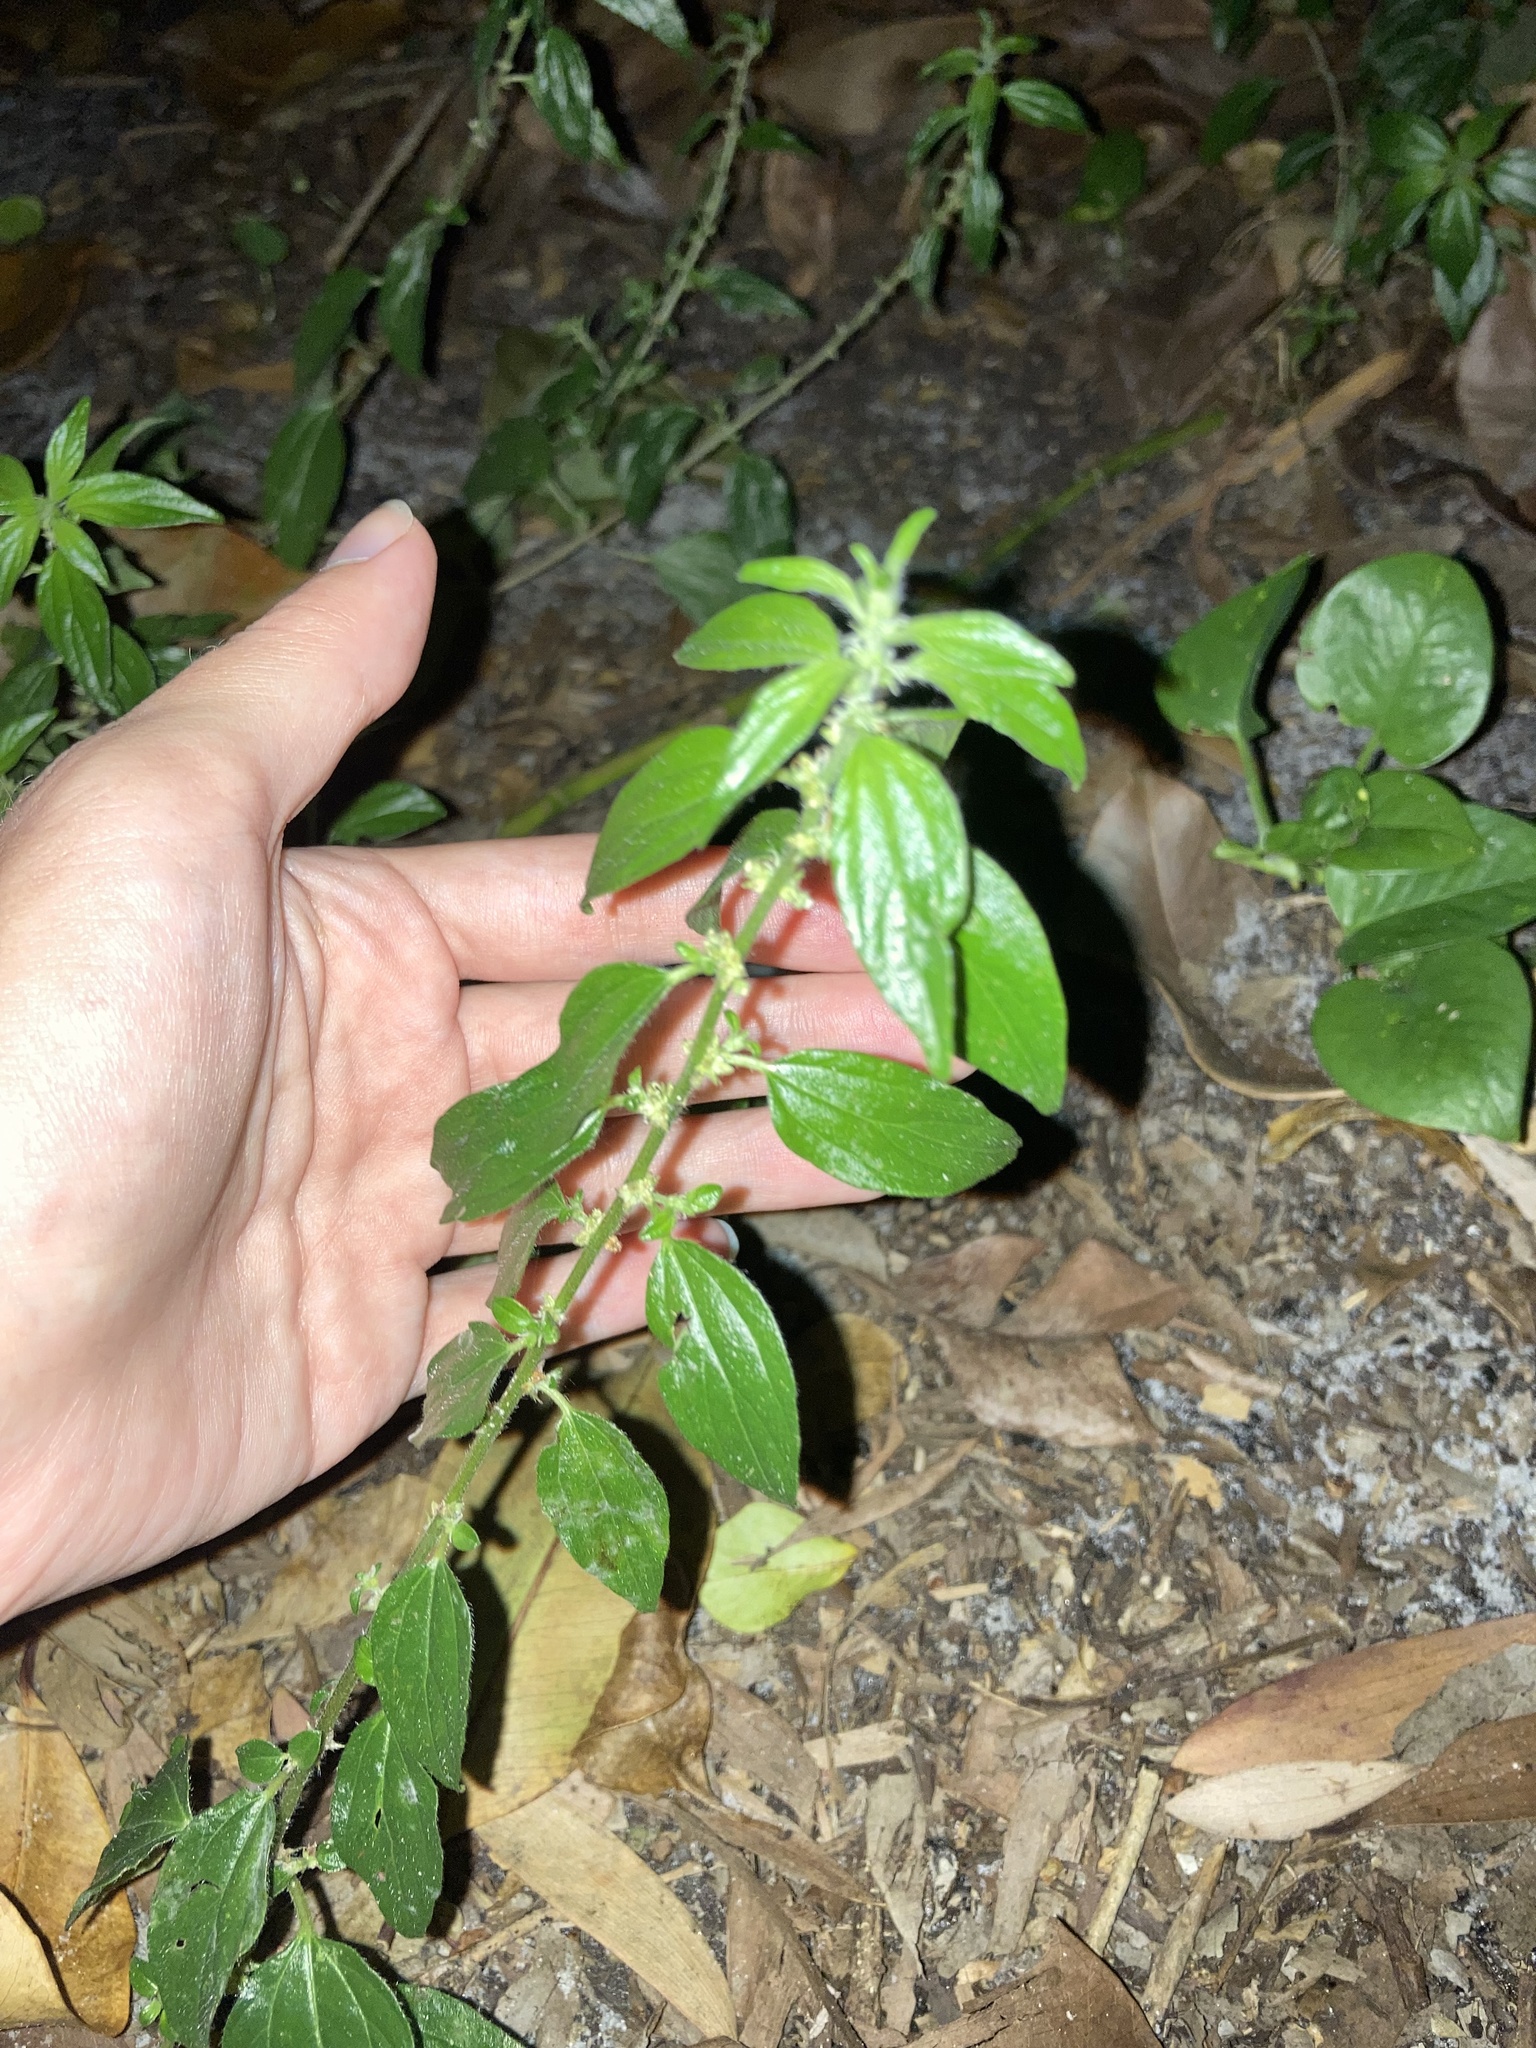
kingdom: Plantae
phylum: Tracheophyta
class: Magnoliopsida
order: Rosales
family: Urticaceae
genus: Pouzolzia
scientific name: Pouzolzia zeylanica
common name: Graceful pouzolzsbush
